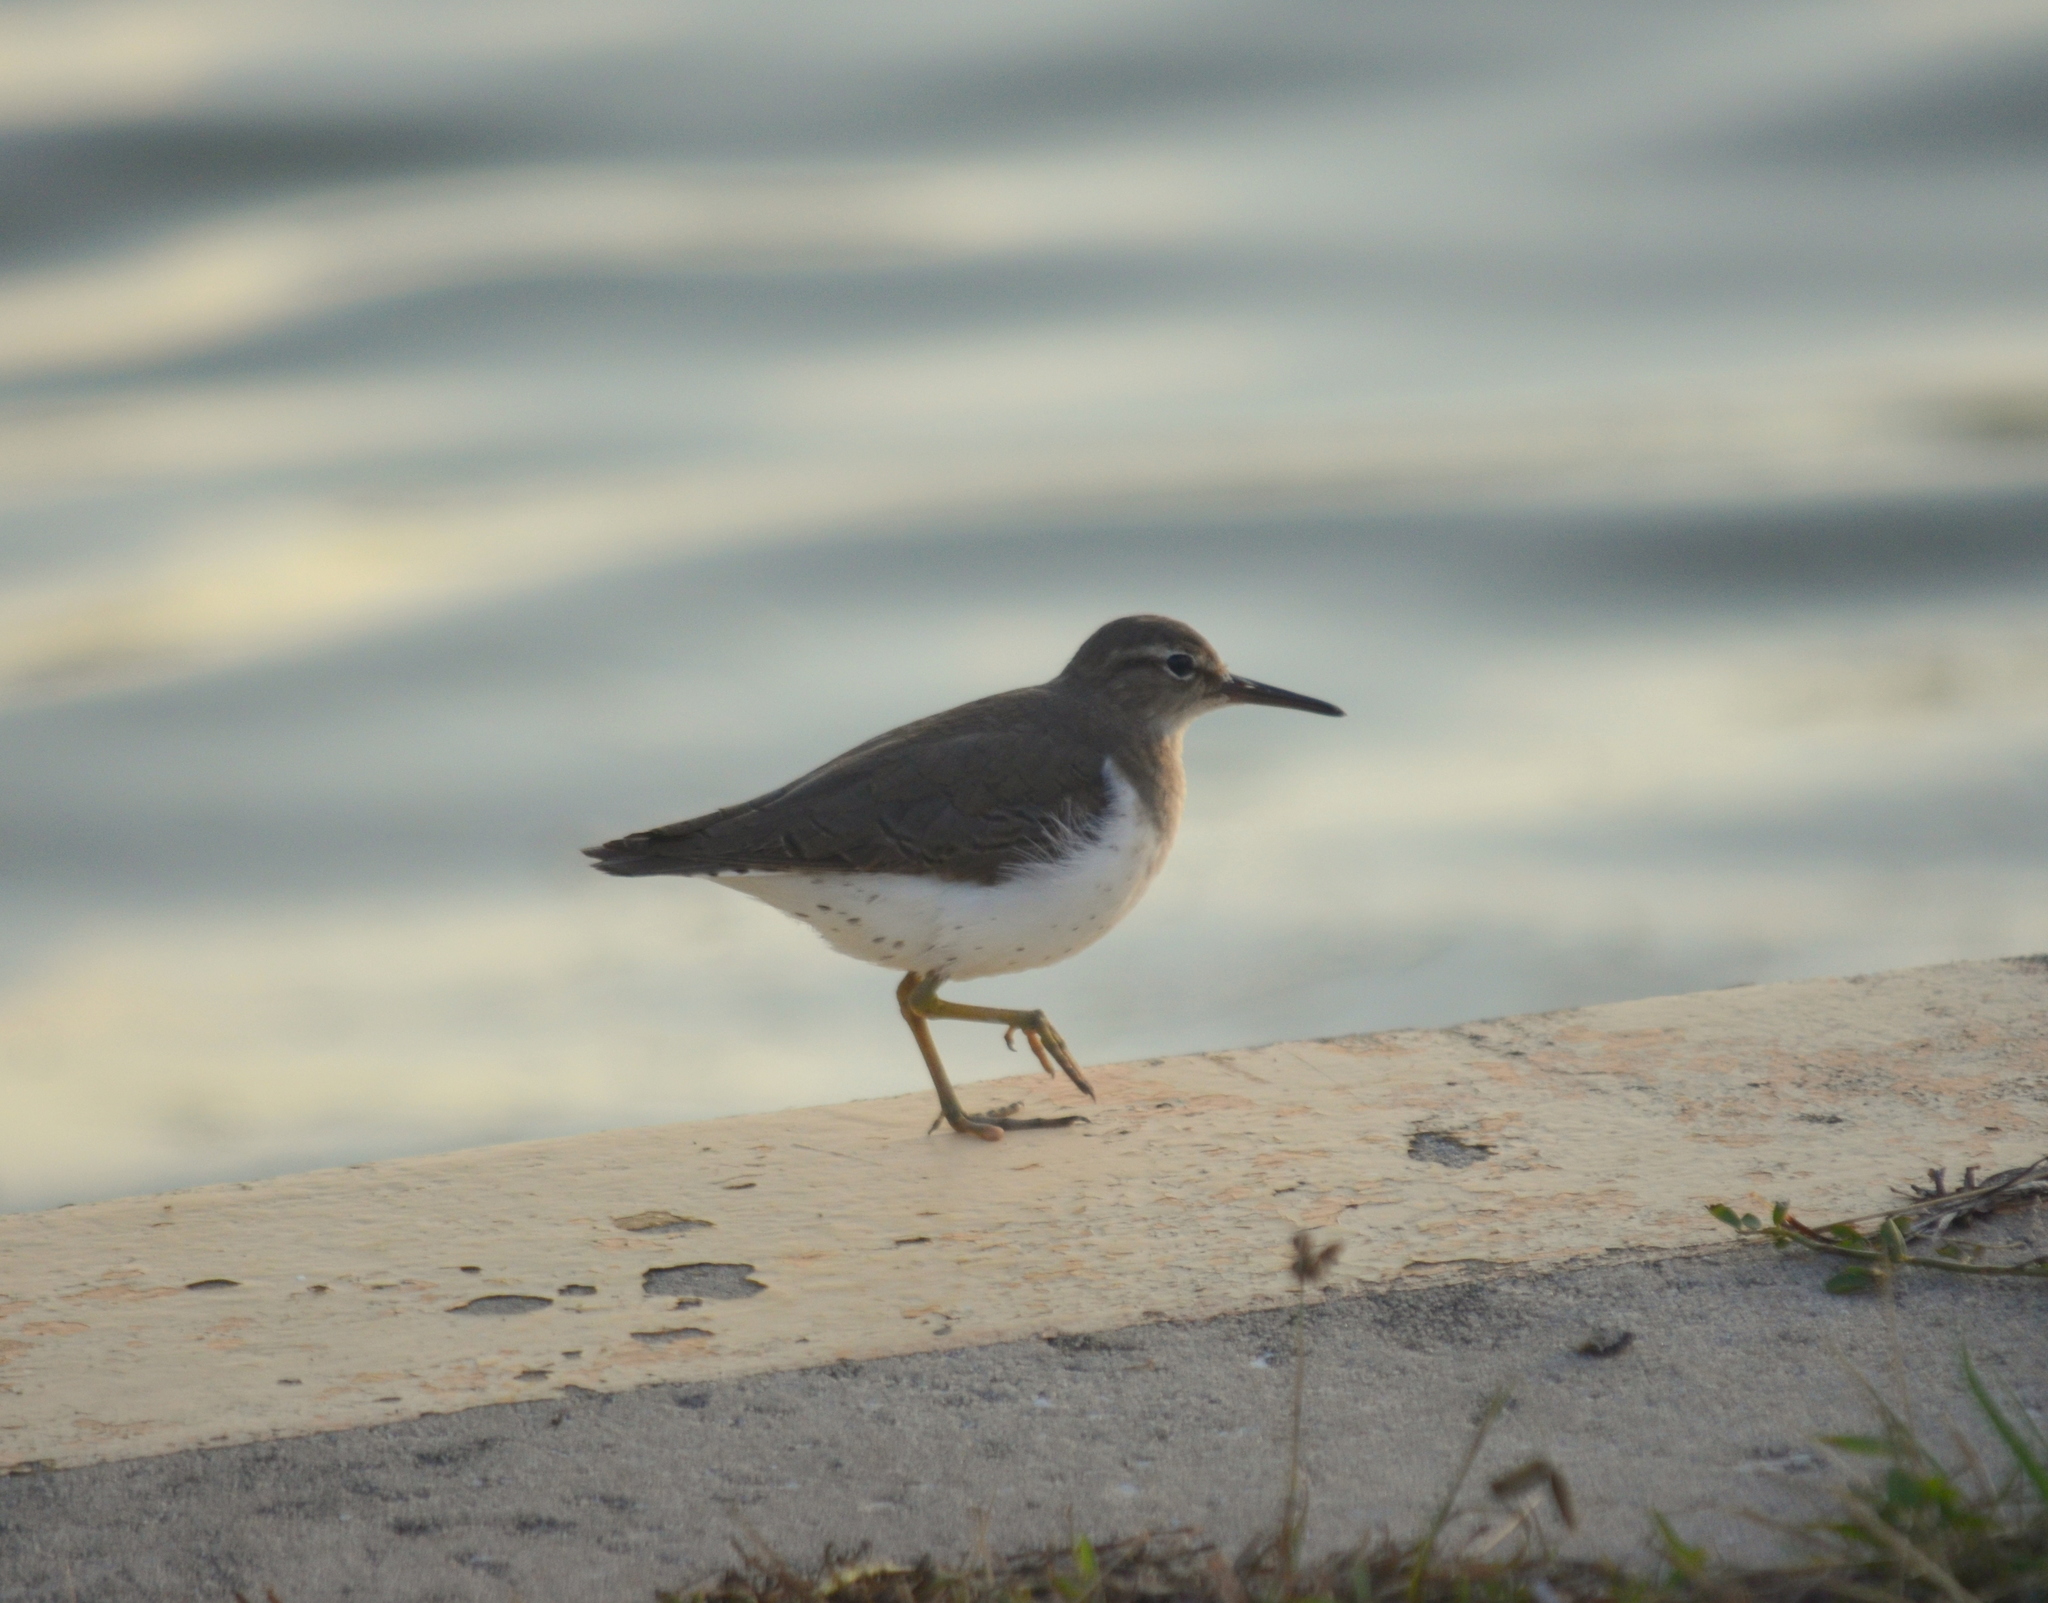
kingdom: Animalia
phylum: Chordata
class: Aves
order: Charadriiformes
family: Scolopacidae
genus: Actitis
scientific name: Actitis macularius
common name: Spotted sandpiper
